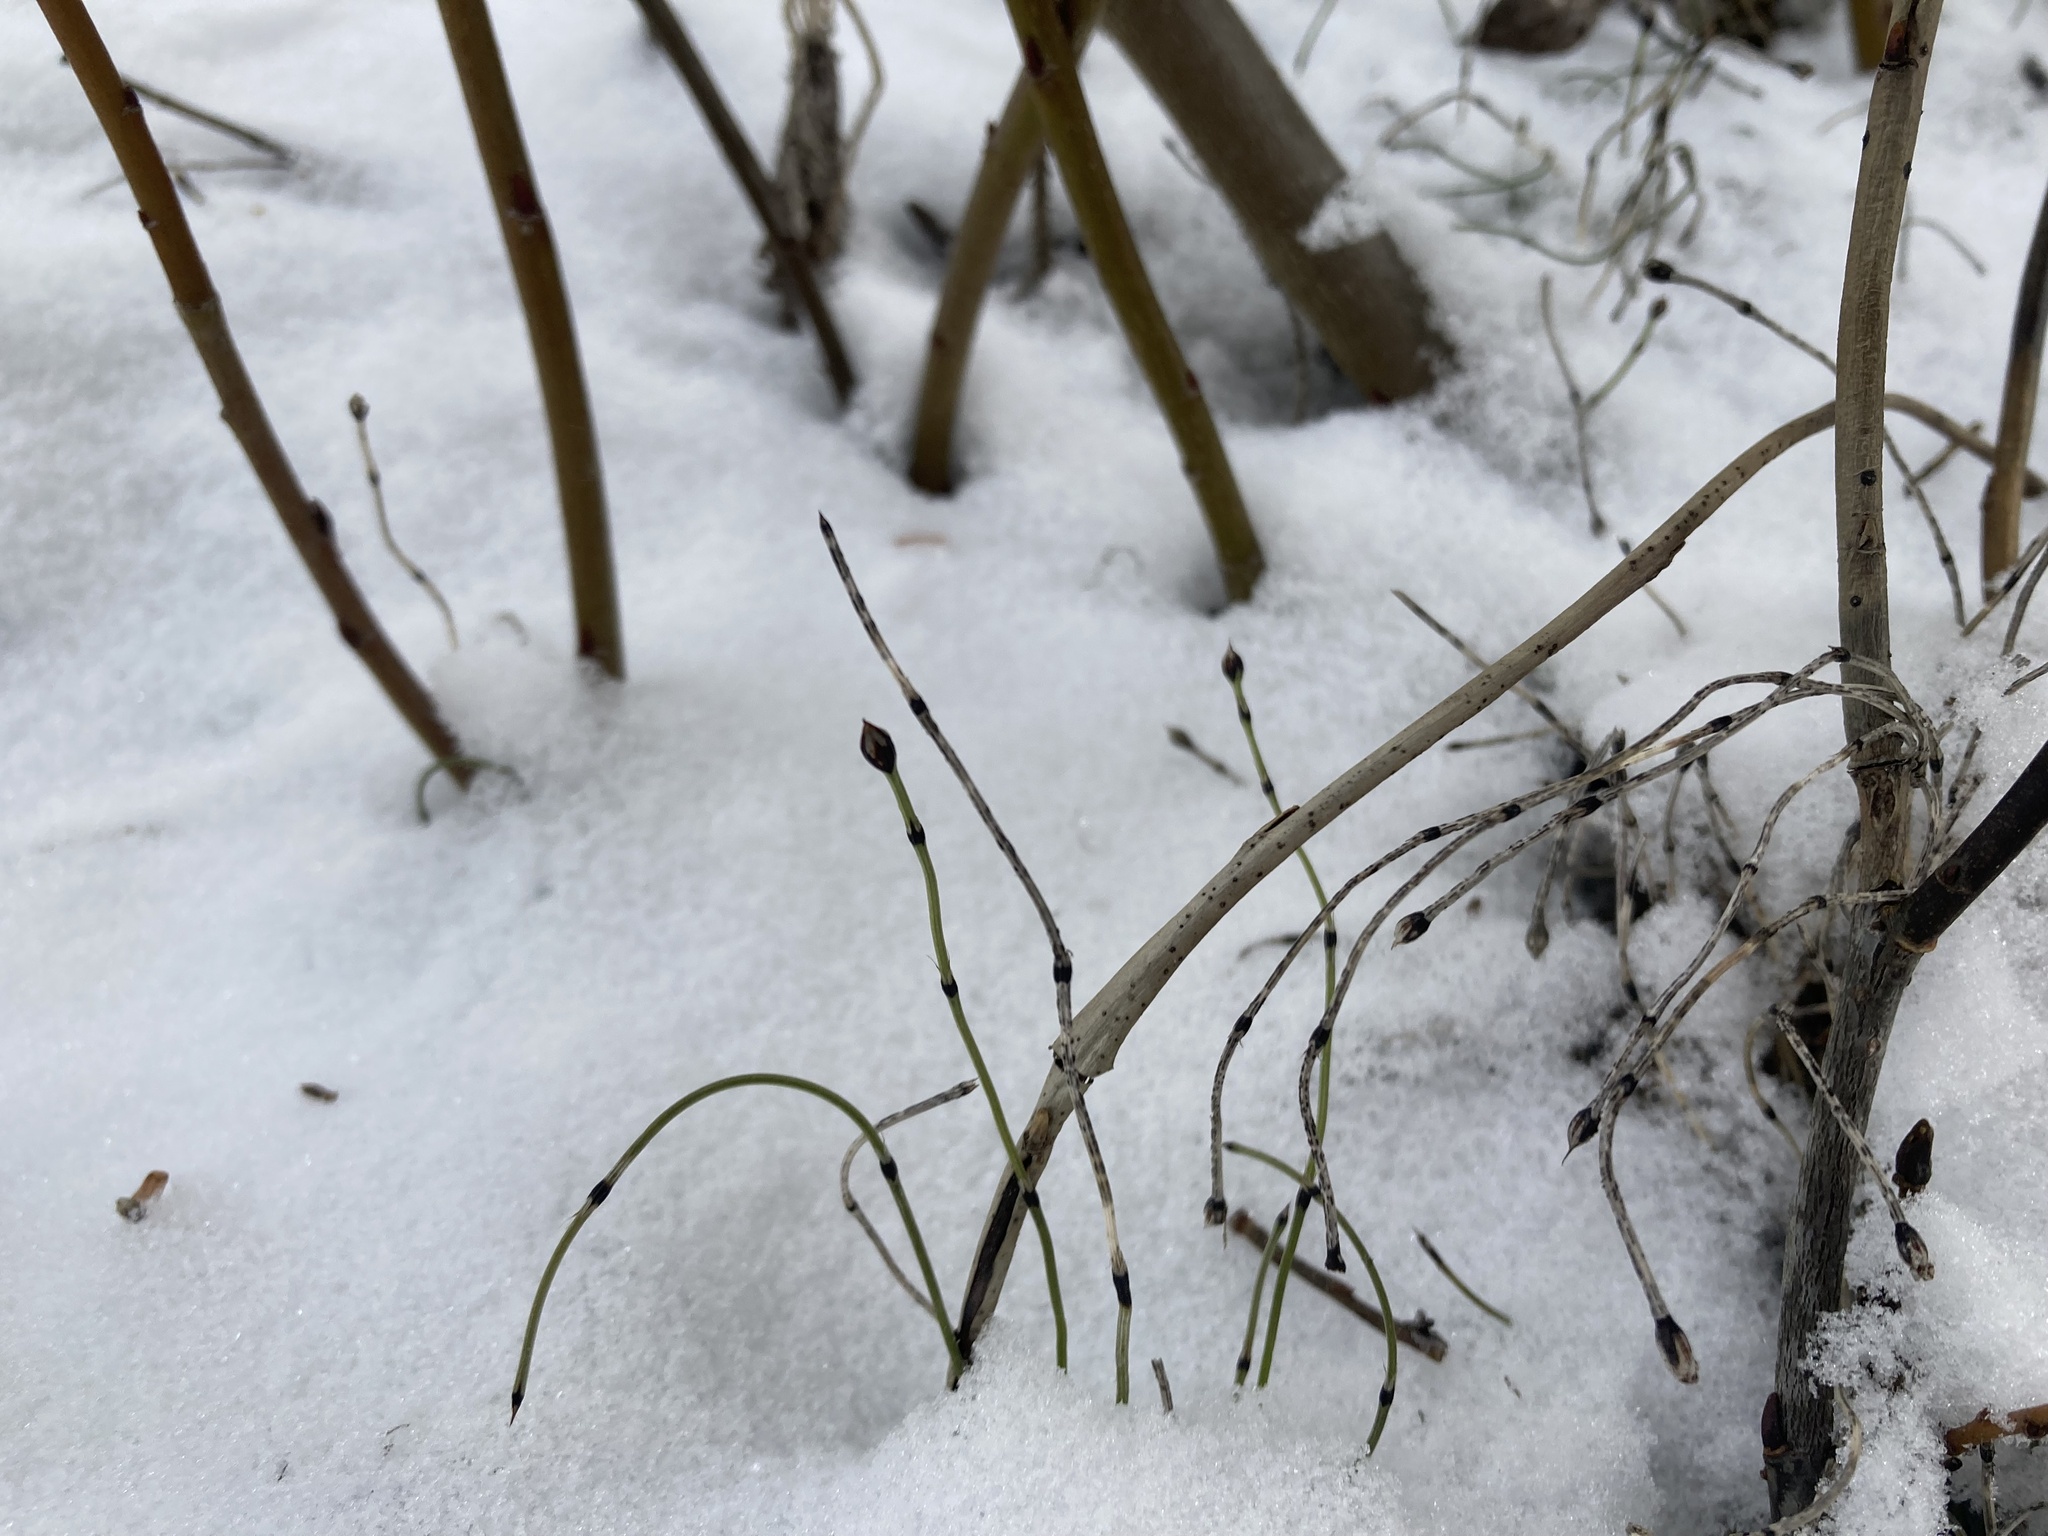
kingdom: Plantae
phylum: Tracheophyta
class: Polypodiopsida
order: Equisetales
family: Equisetaceae
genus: Equisetum
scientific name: Equisetum scirpoides
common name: Delicate horsetail
